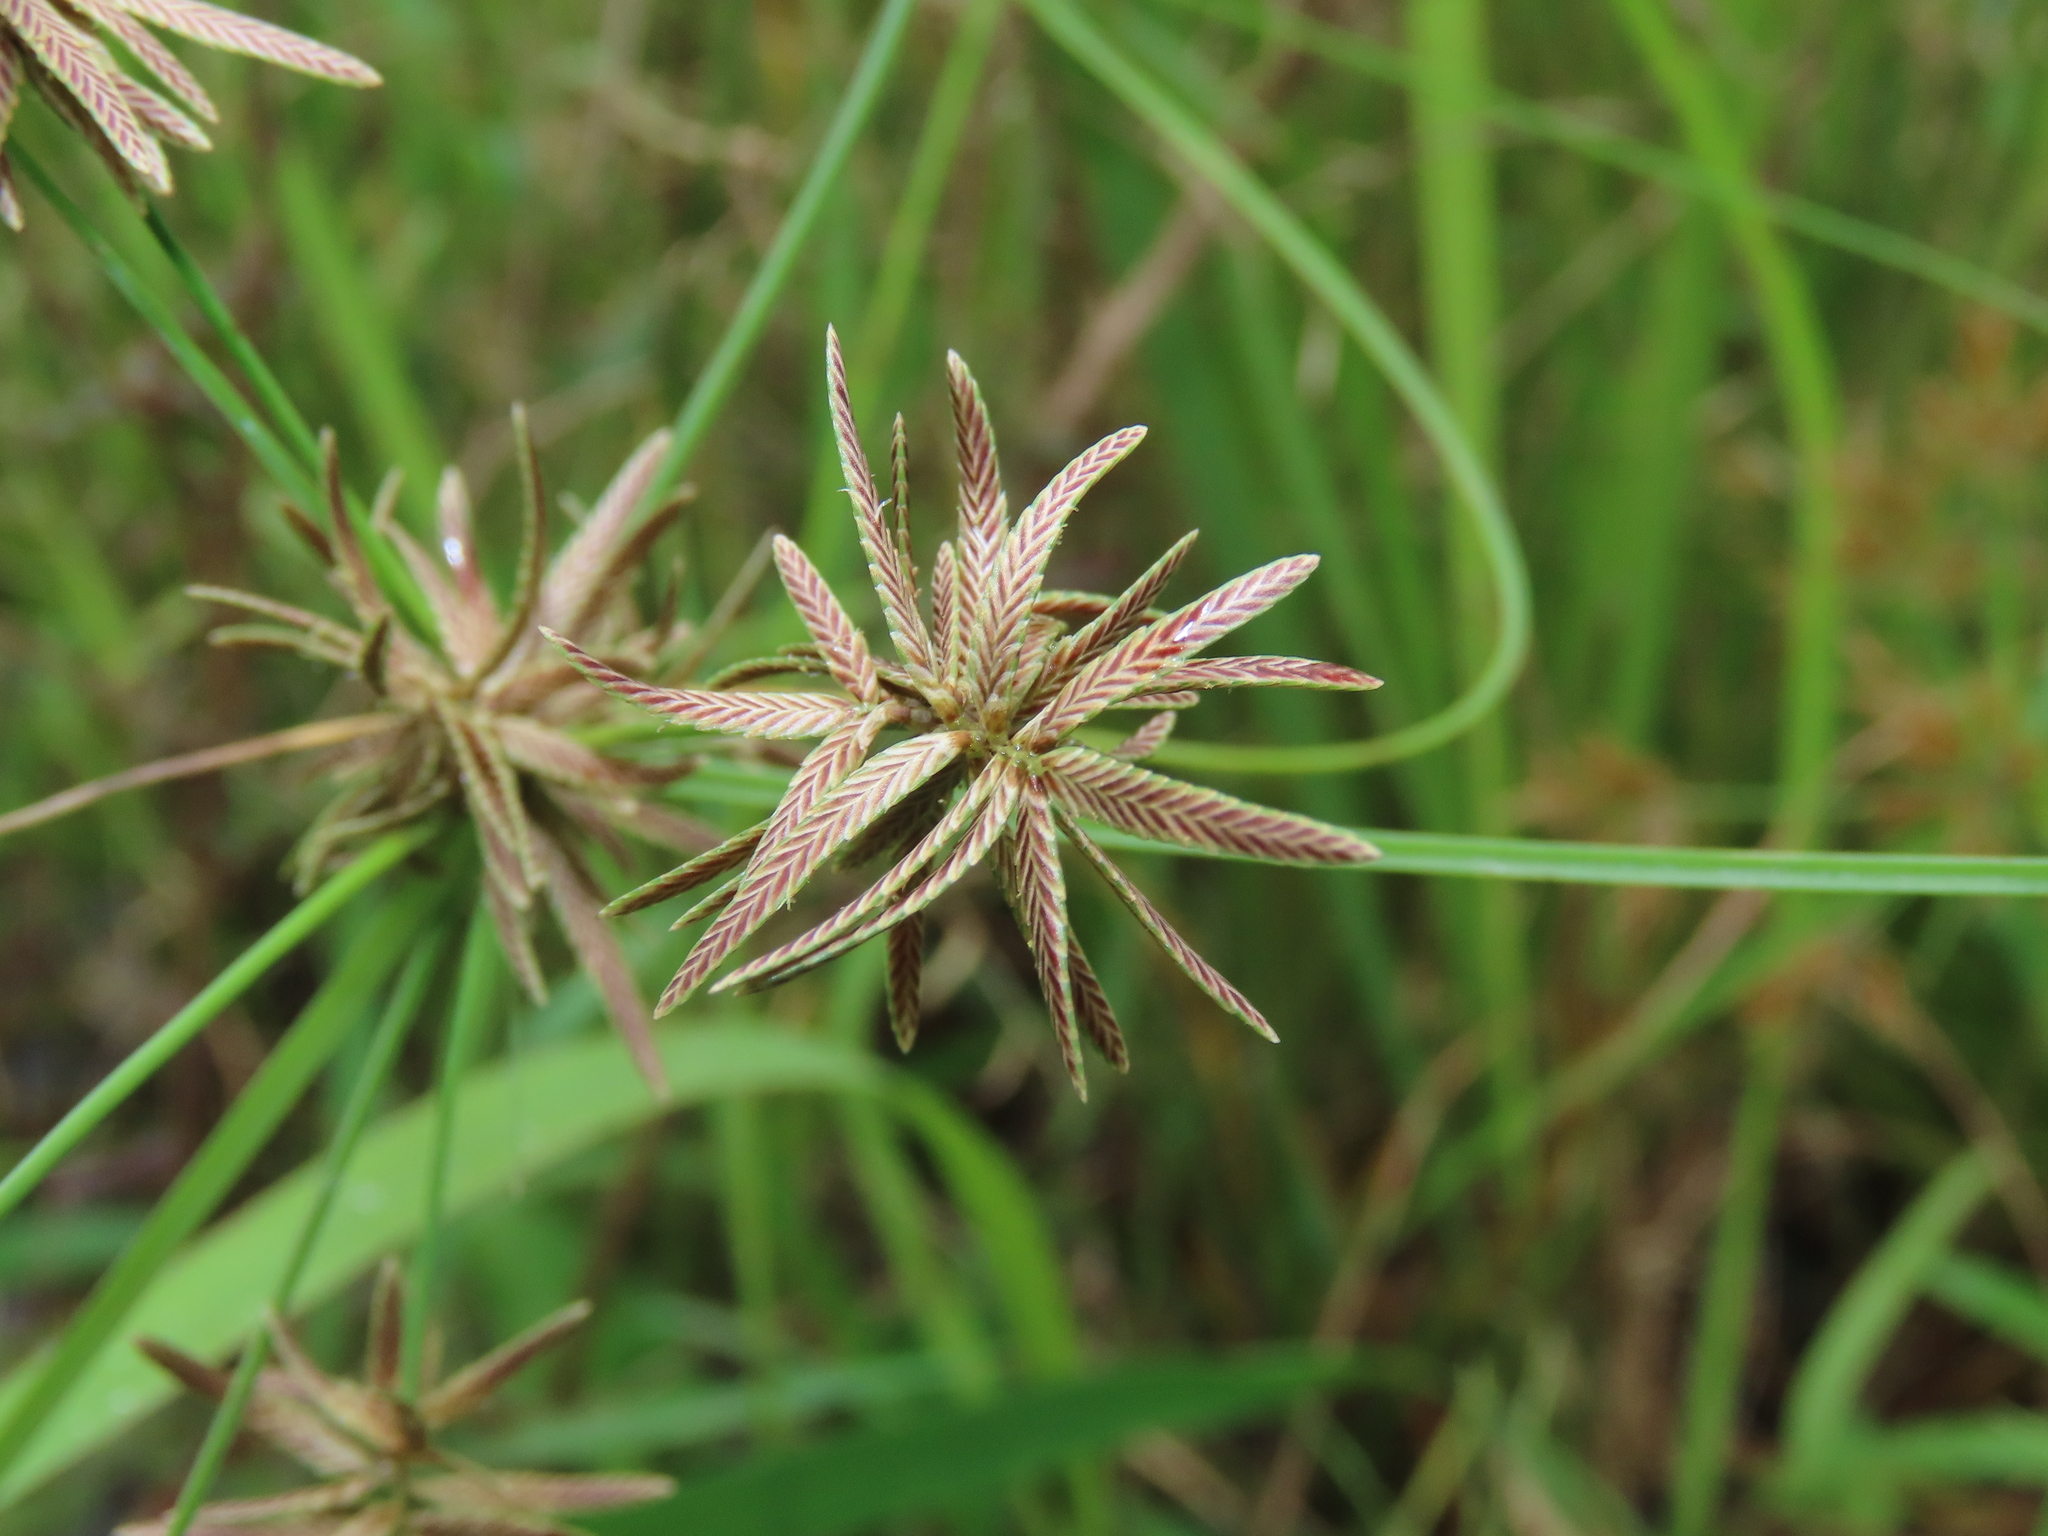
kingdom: Plantae
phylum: Tracheophyta
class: Liliopsida
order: Poales
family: Cyperaceae
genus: Cyperus
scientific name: Cyperus flavidus
